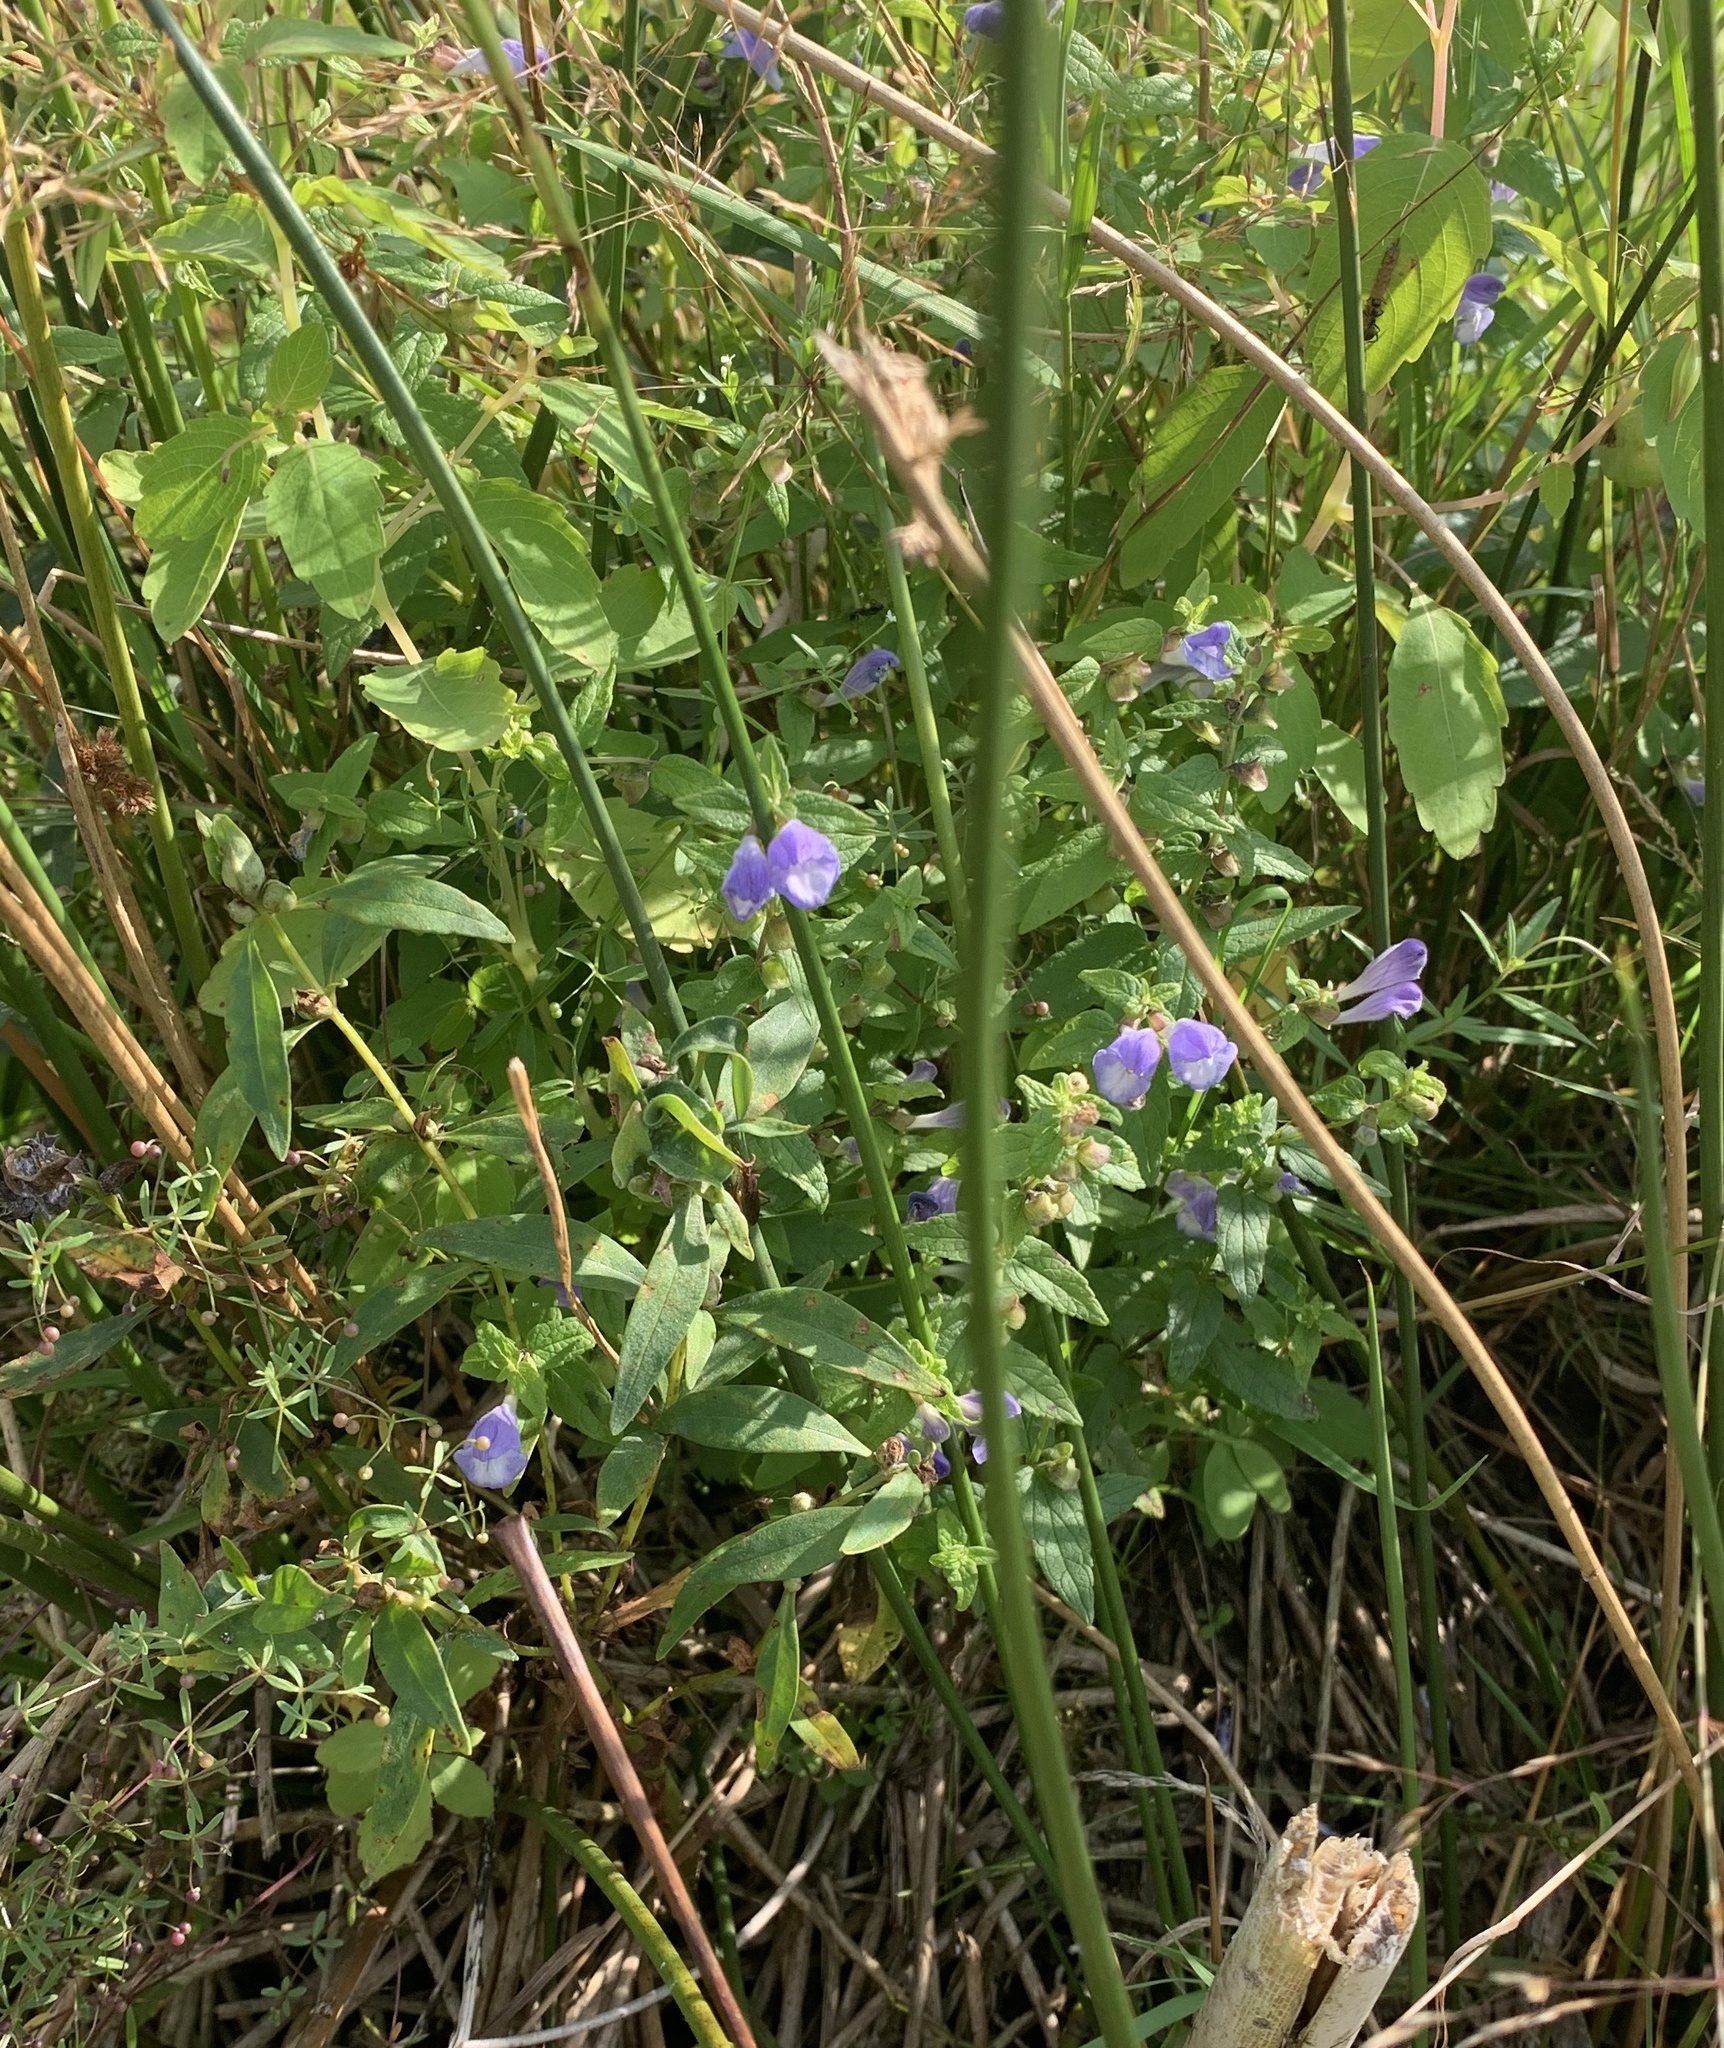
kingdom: Plantae
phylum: Tracheophyta
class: Magnoliopsida
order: Lamiales
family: Lamiaceae
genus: Scutellaria
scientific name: Scutellaria galericulata
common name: Skullcap
